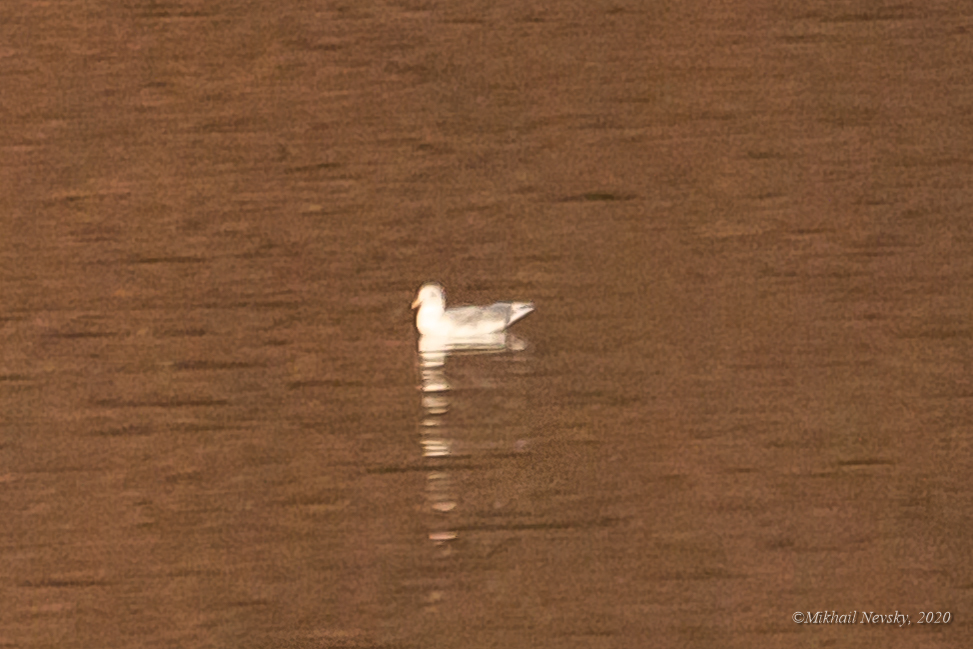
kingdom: Animalia
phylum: Chordata
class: Aves
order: Charadriiformes
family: Laridae
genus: Larus
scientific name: Larus hyperboreus
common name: Glaucous gull
